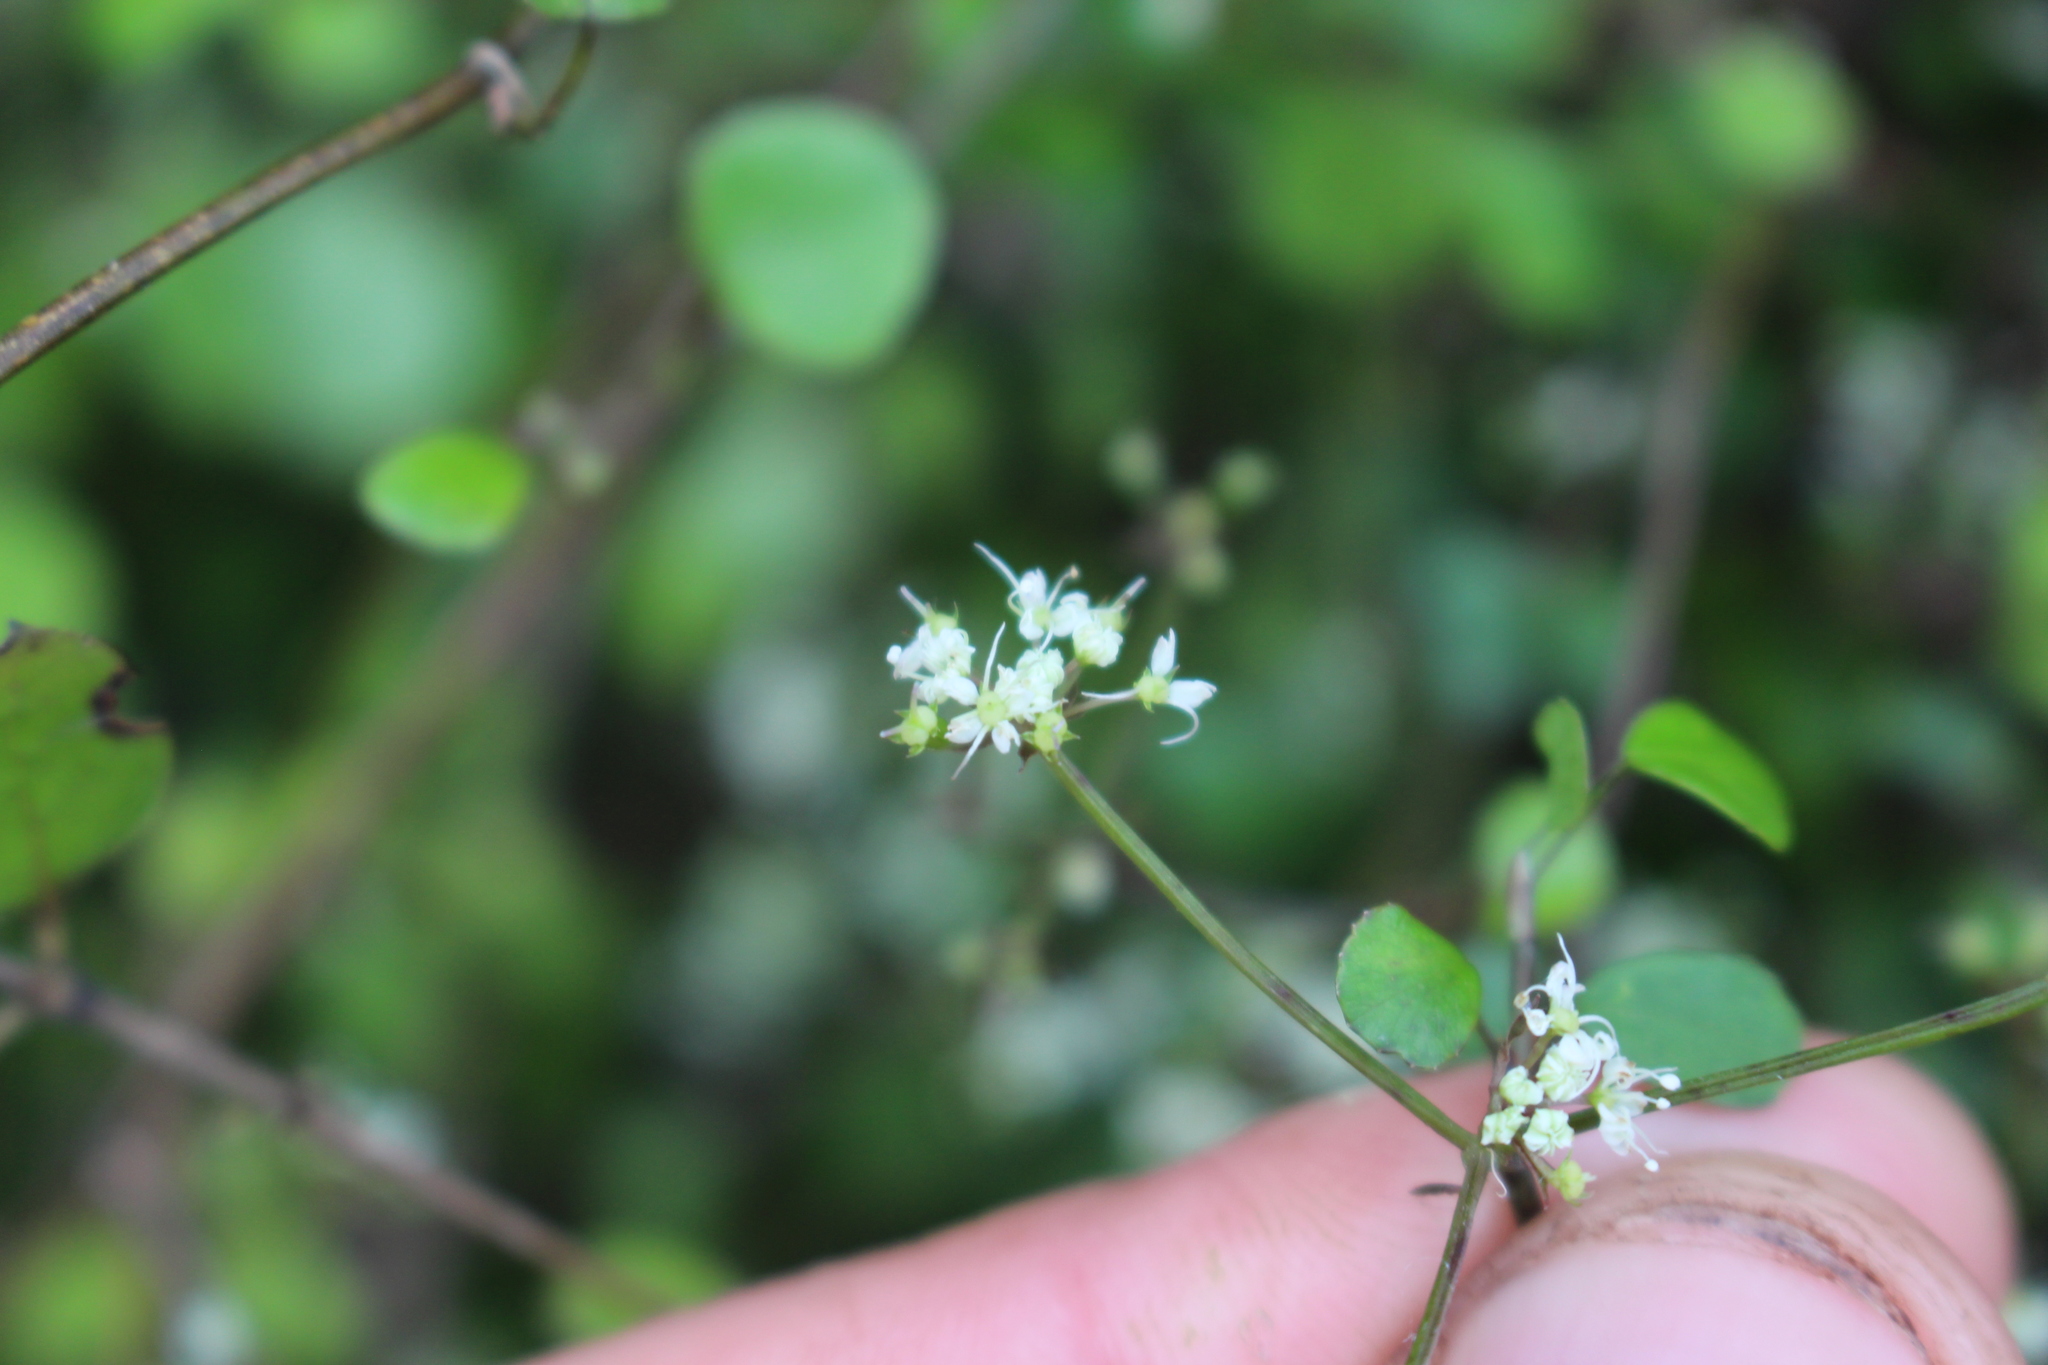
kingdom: Plantae
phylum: Tracheophyta
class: Magnoliopsida
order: Apiales
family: Apiaceae
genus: Scandia
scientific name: Scandia geniculata
